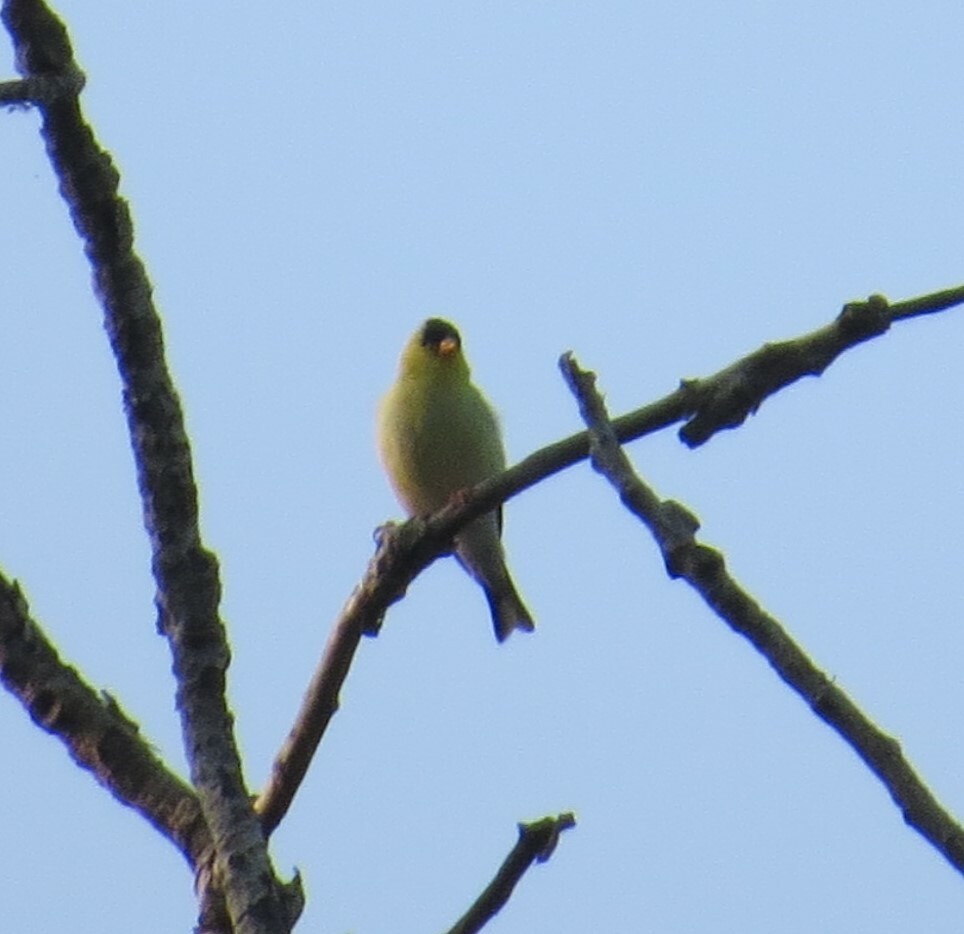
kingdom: Animalia
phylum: Chordata
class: Aves
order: Passeriformes
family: Fringillidae
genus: Spinus
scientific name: Spinus tristis
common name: American goldfinch
